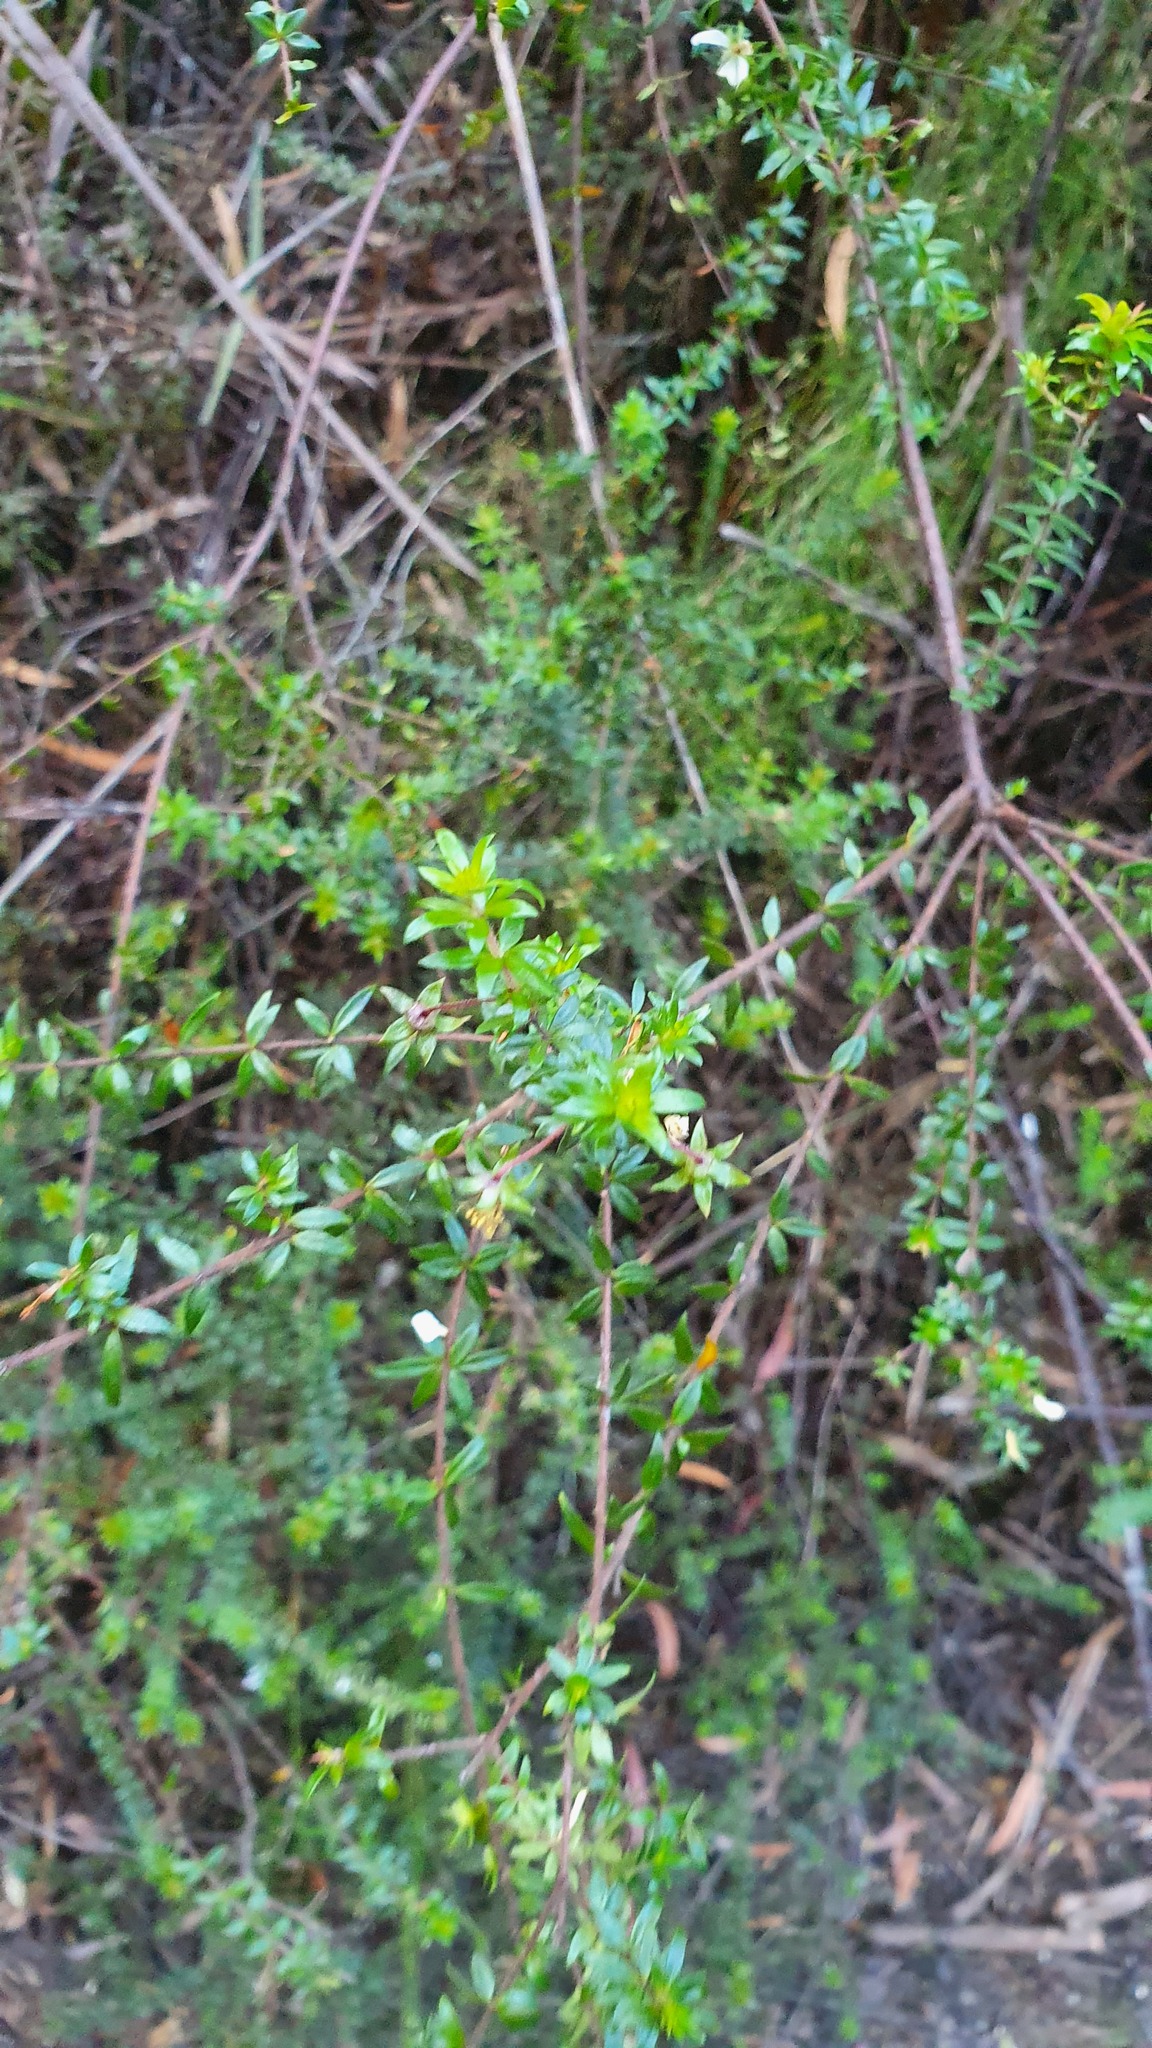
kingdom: Plantae
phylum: Tracheophyta
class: Magnoliopsida
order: Oxalidales
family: Cunoniaceae
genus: Bauera
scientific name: Bauera rubioides
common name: River-rose
